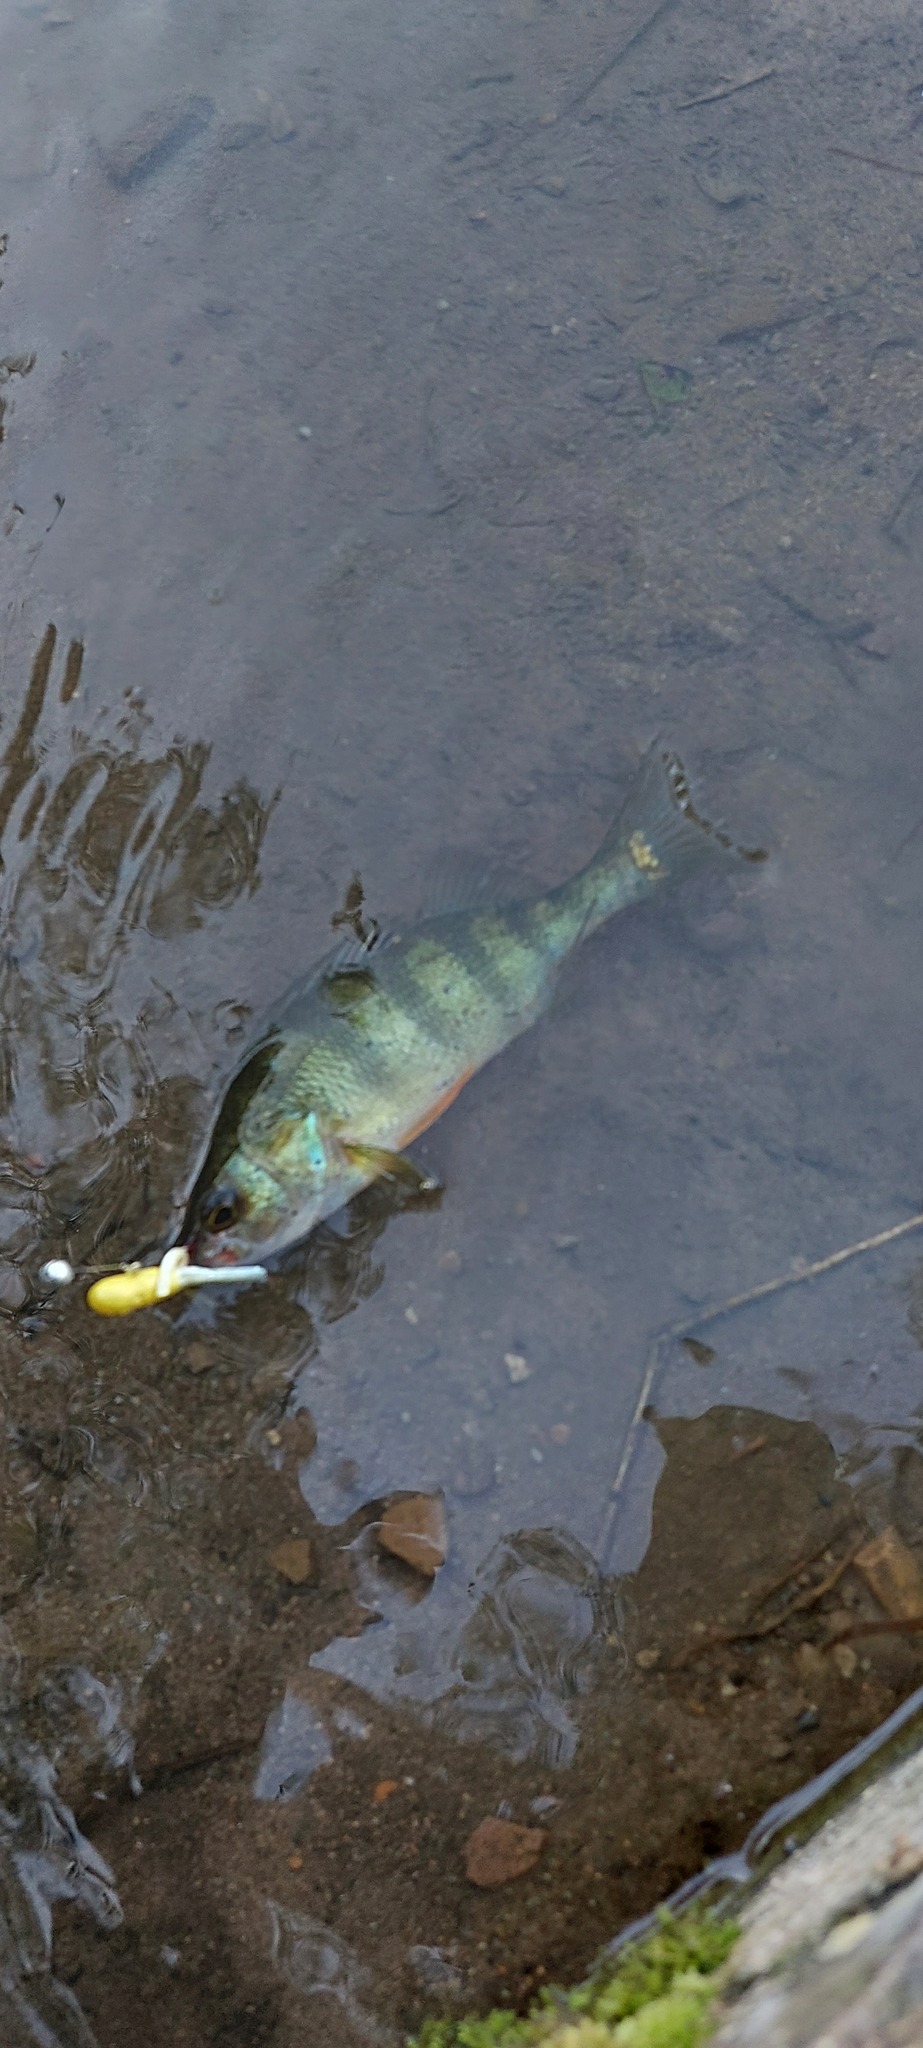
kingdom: Animalia
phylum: Chordata
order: Perciformes
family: Percidae
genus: Perca
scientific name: Perca flavescens
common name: Yellow perch
